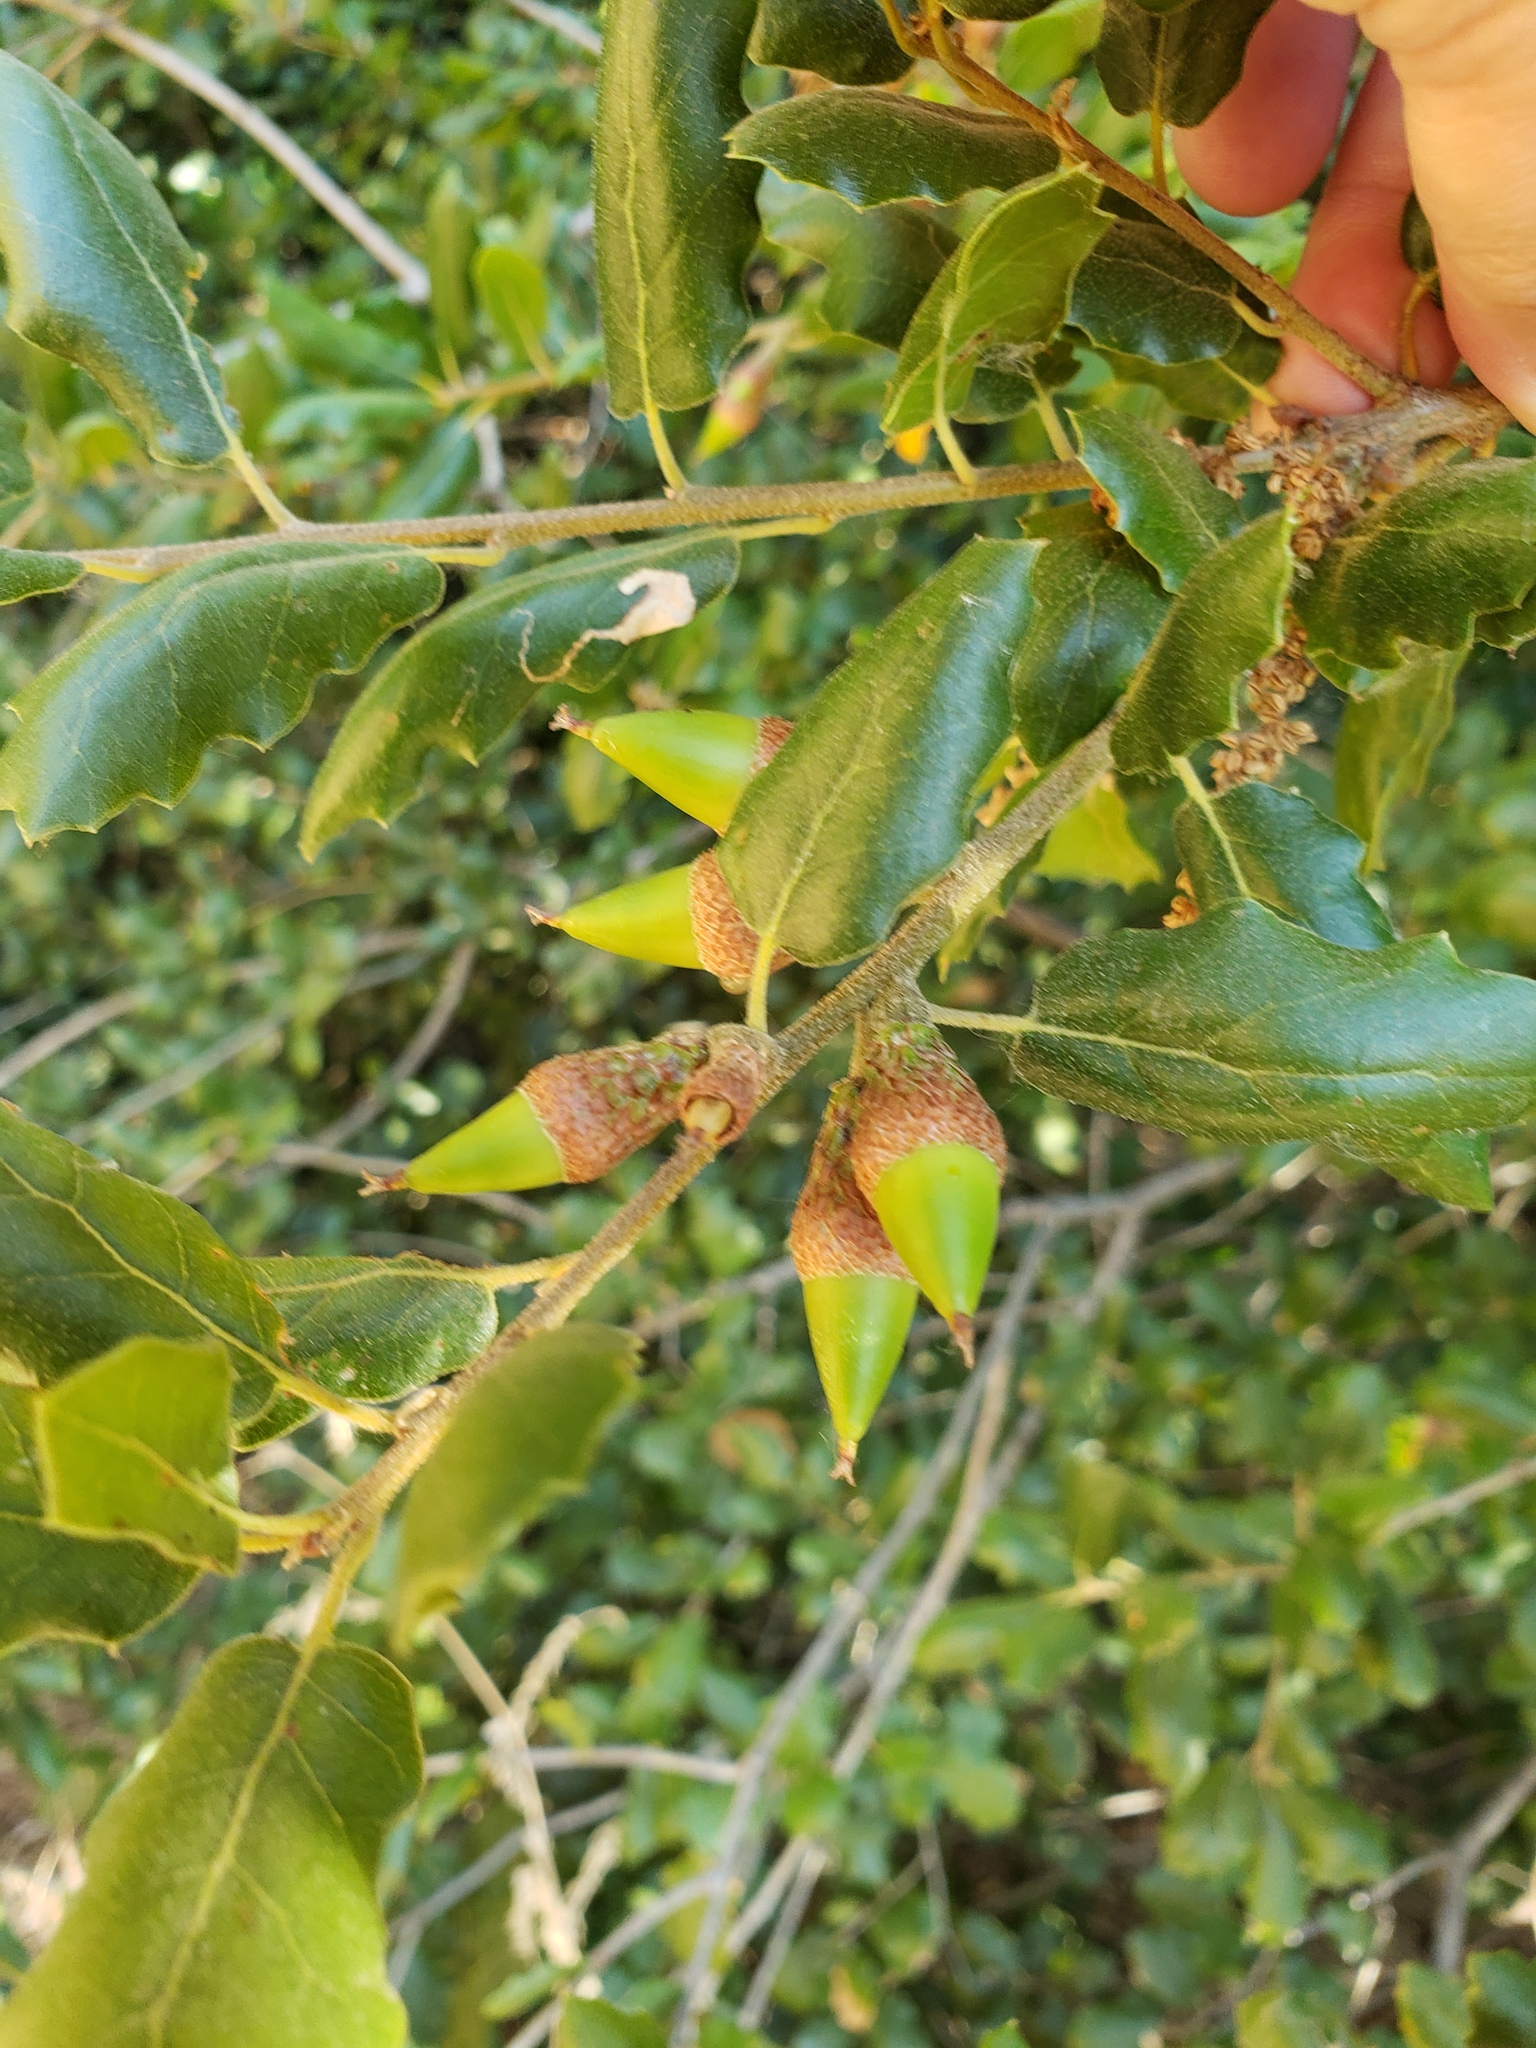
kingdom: Plantae
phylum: Tracheophyta
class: Magnoliopsida
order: Fagales
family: Fagaceae
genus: Quercus
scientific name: Quercus agrifolia
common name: California live oak
